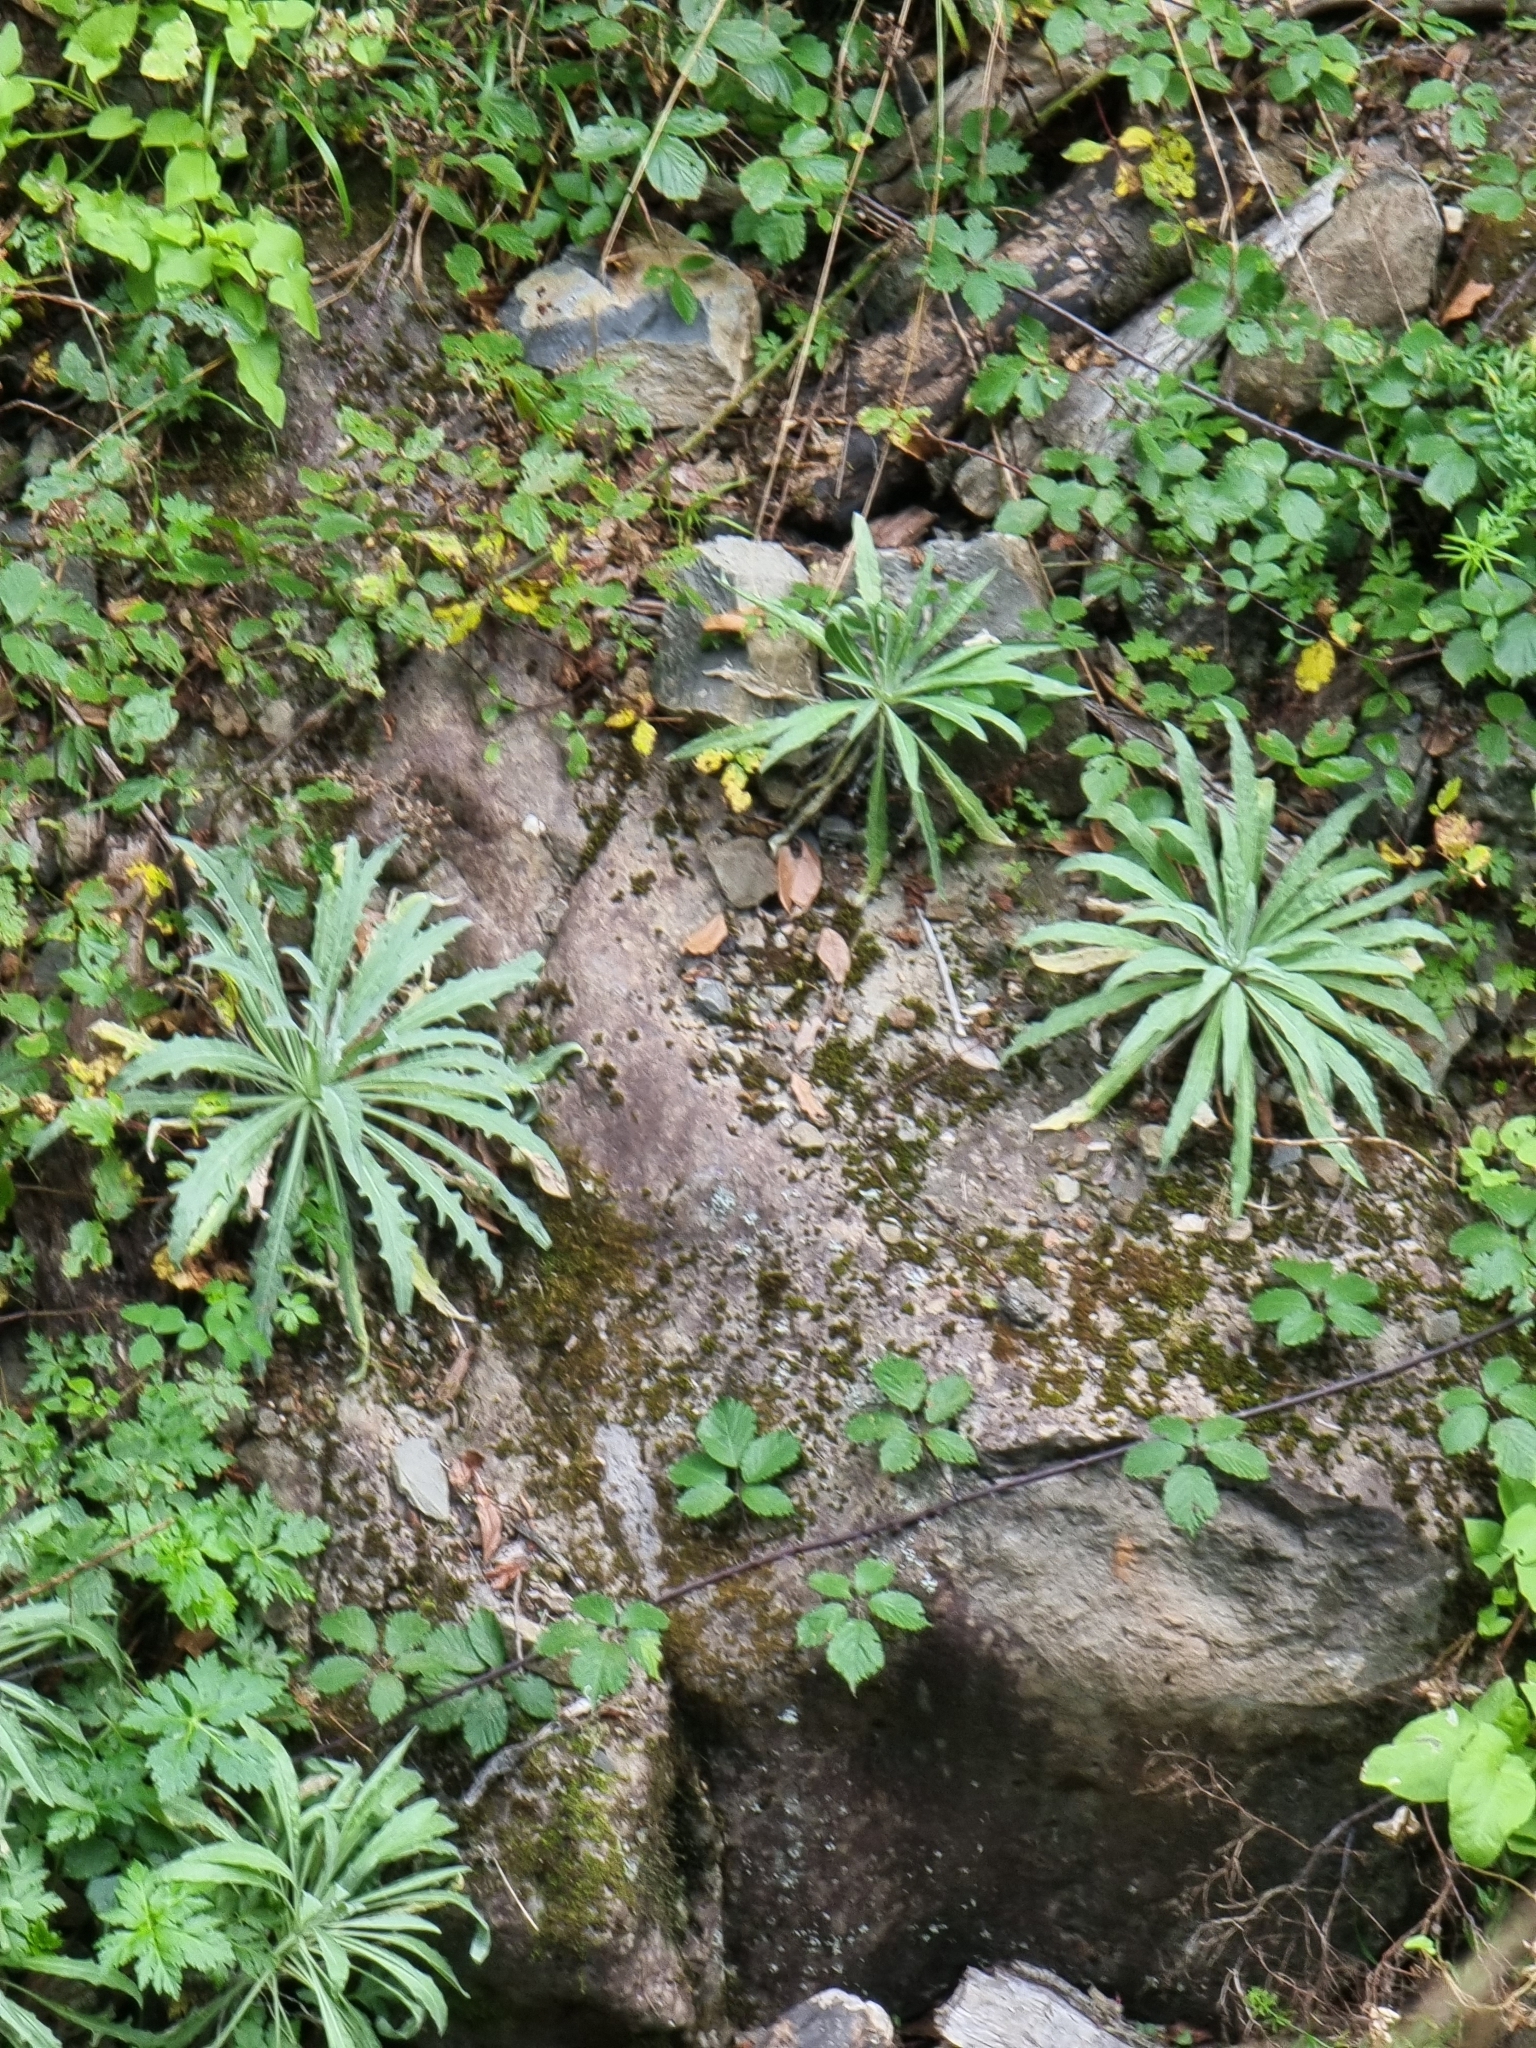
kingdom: Plantae
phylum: Tracheophyta
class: Magnoliopsida
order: Asterales
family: Asteraceae
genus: Andryala
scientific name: Andryala glandulosa
